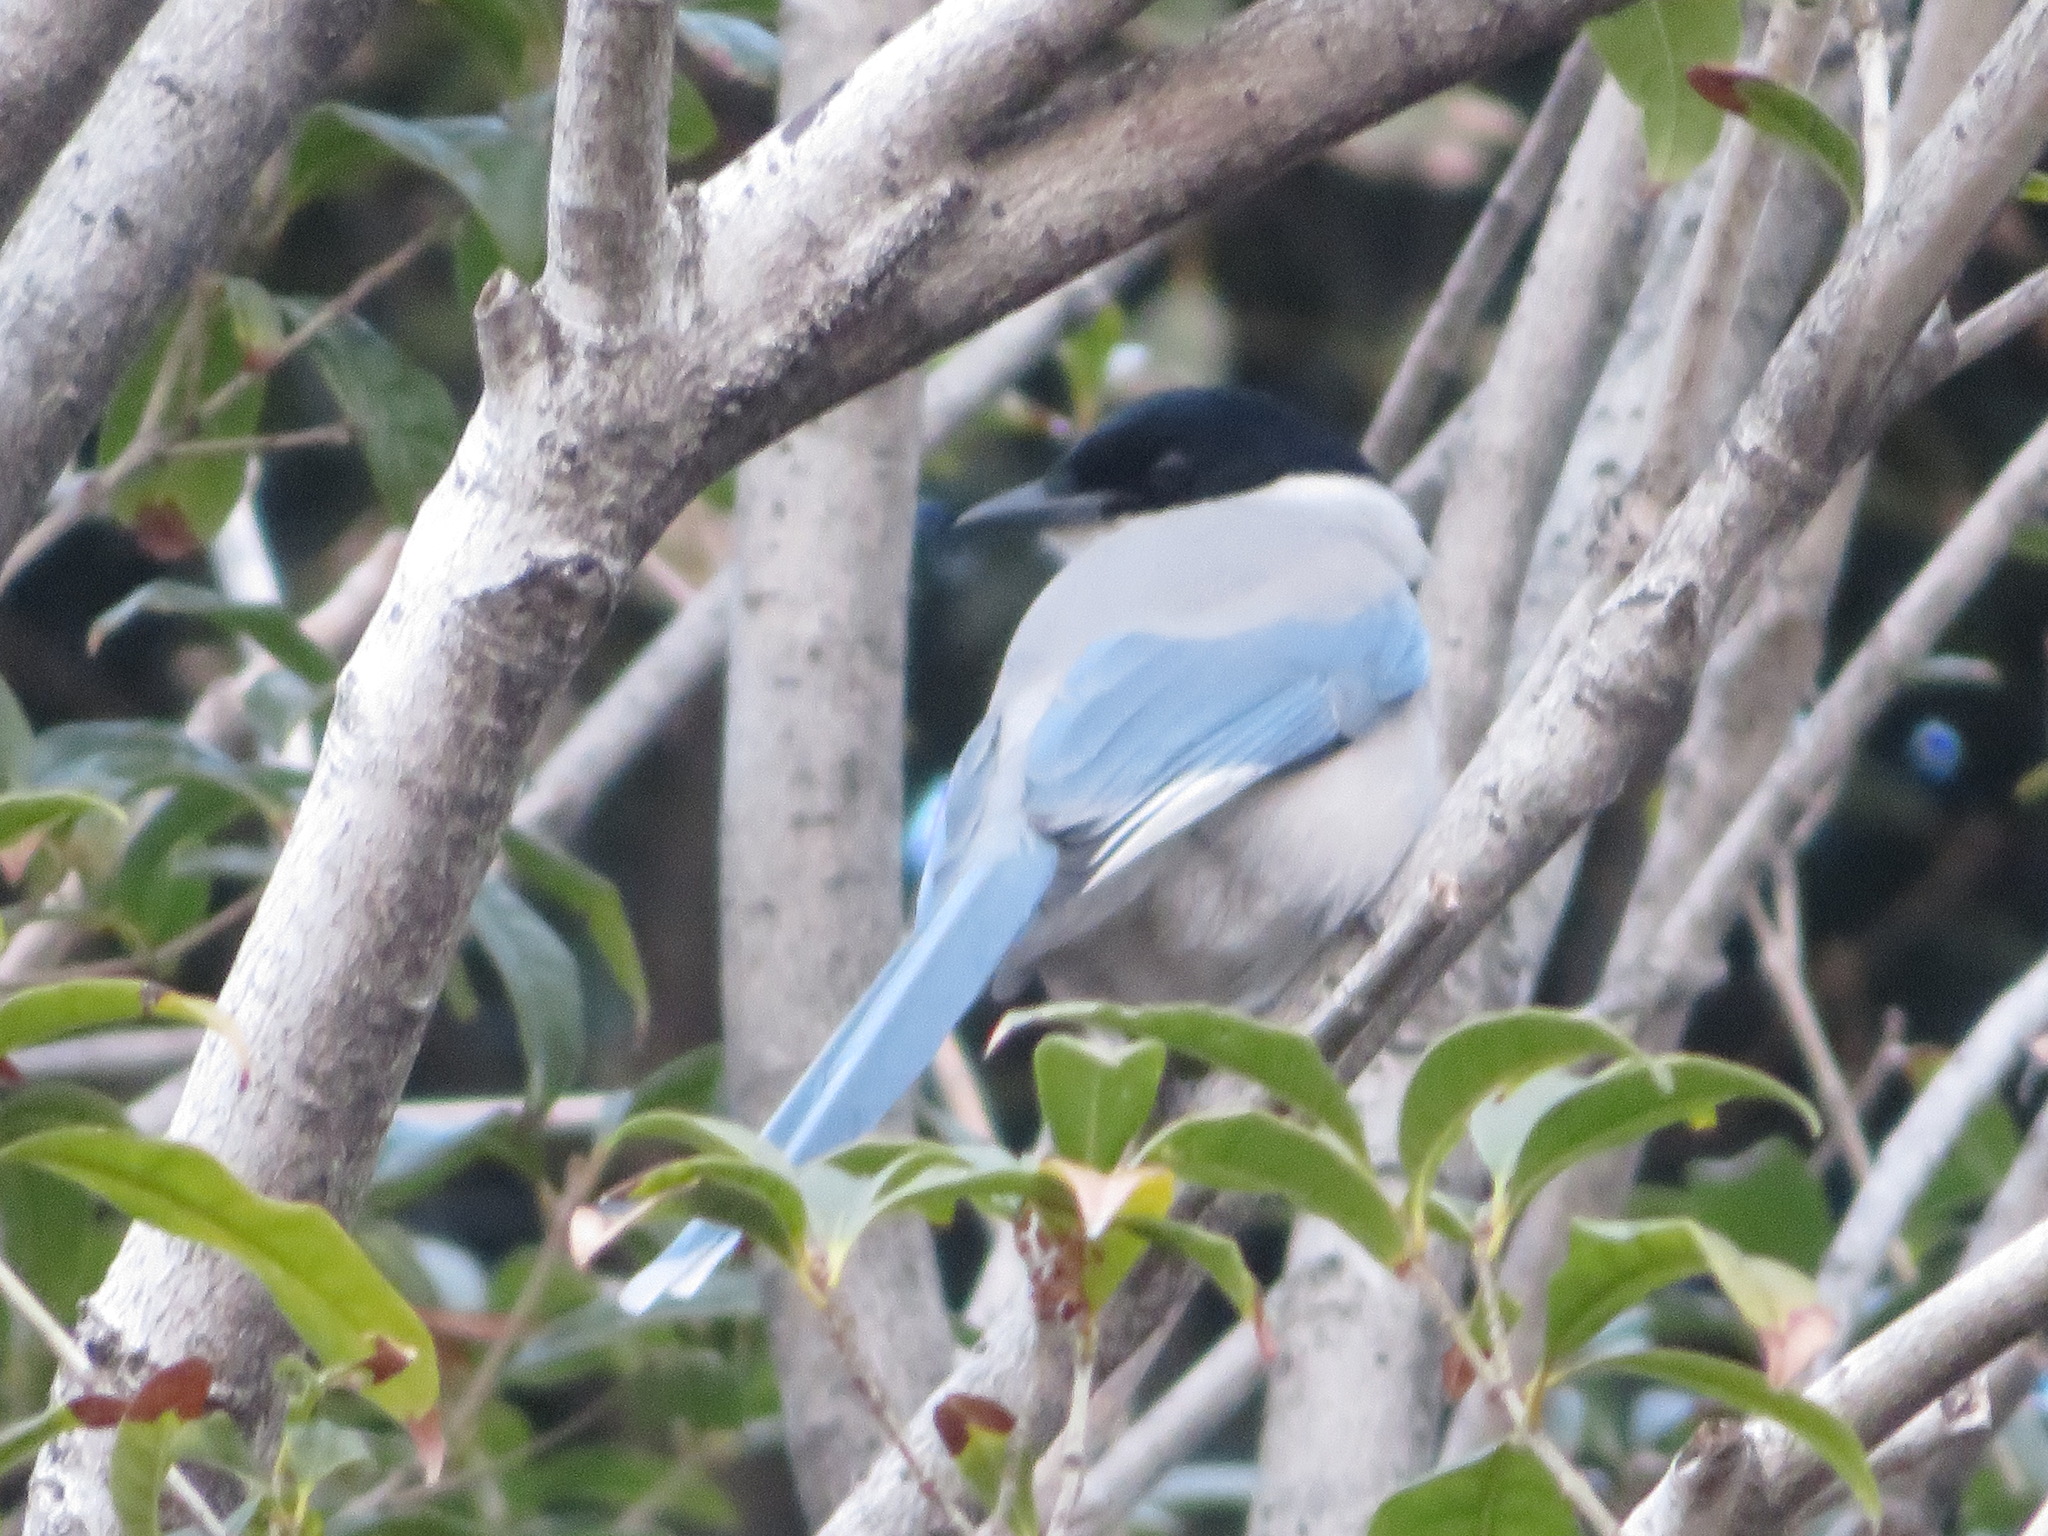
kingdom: Animalia
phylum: Chordata
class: Aves
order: Passeriformes
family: Corvidae
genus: Cyanopica
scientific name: Cyanopica cyanus
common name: Azure-winged magpie
